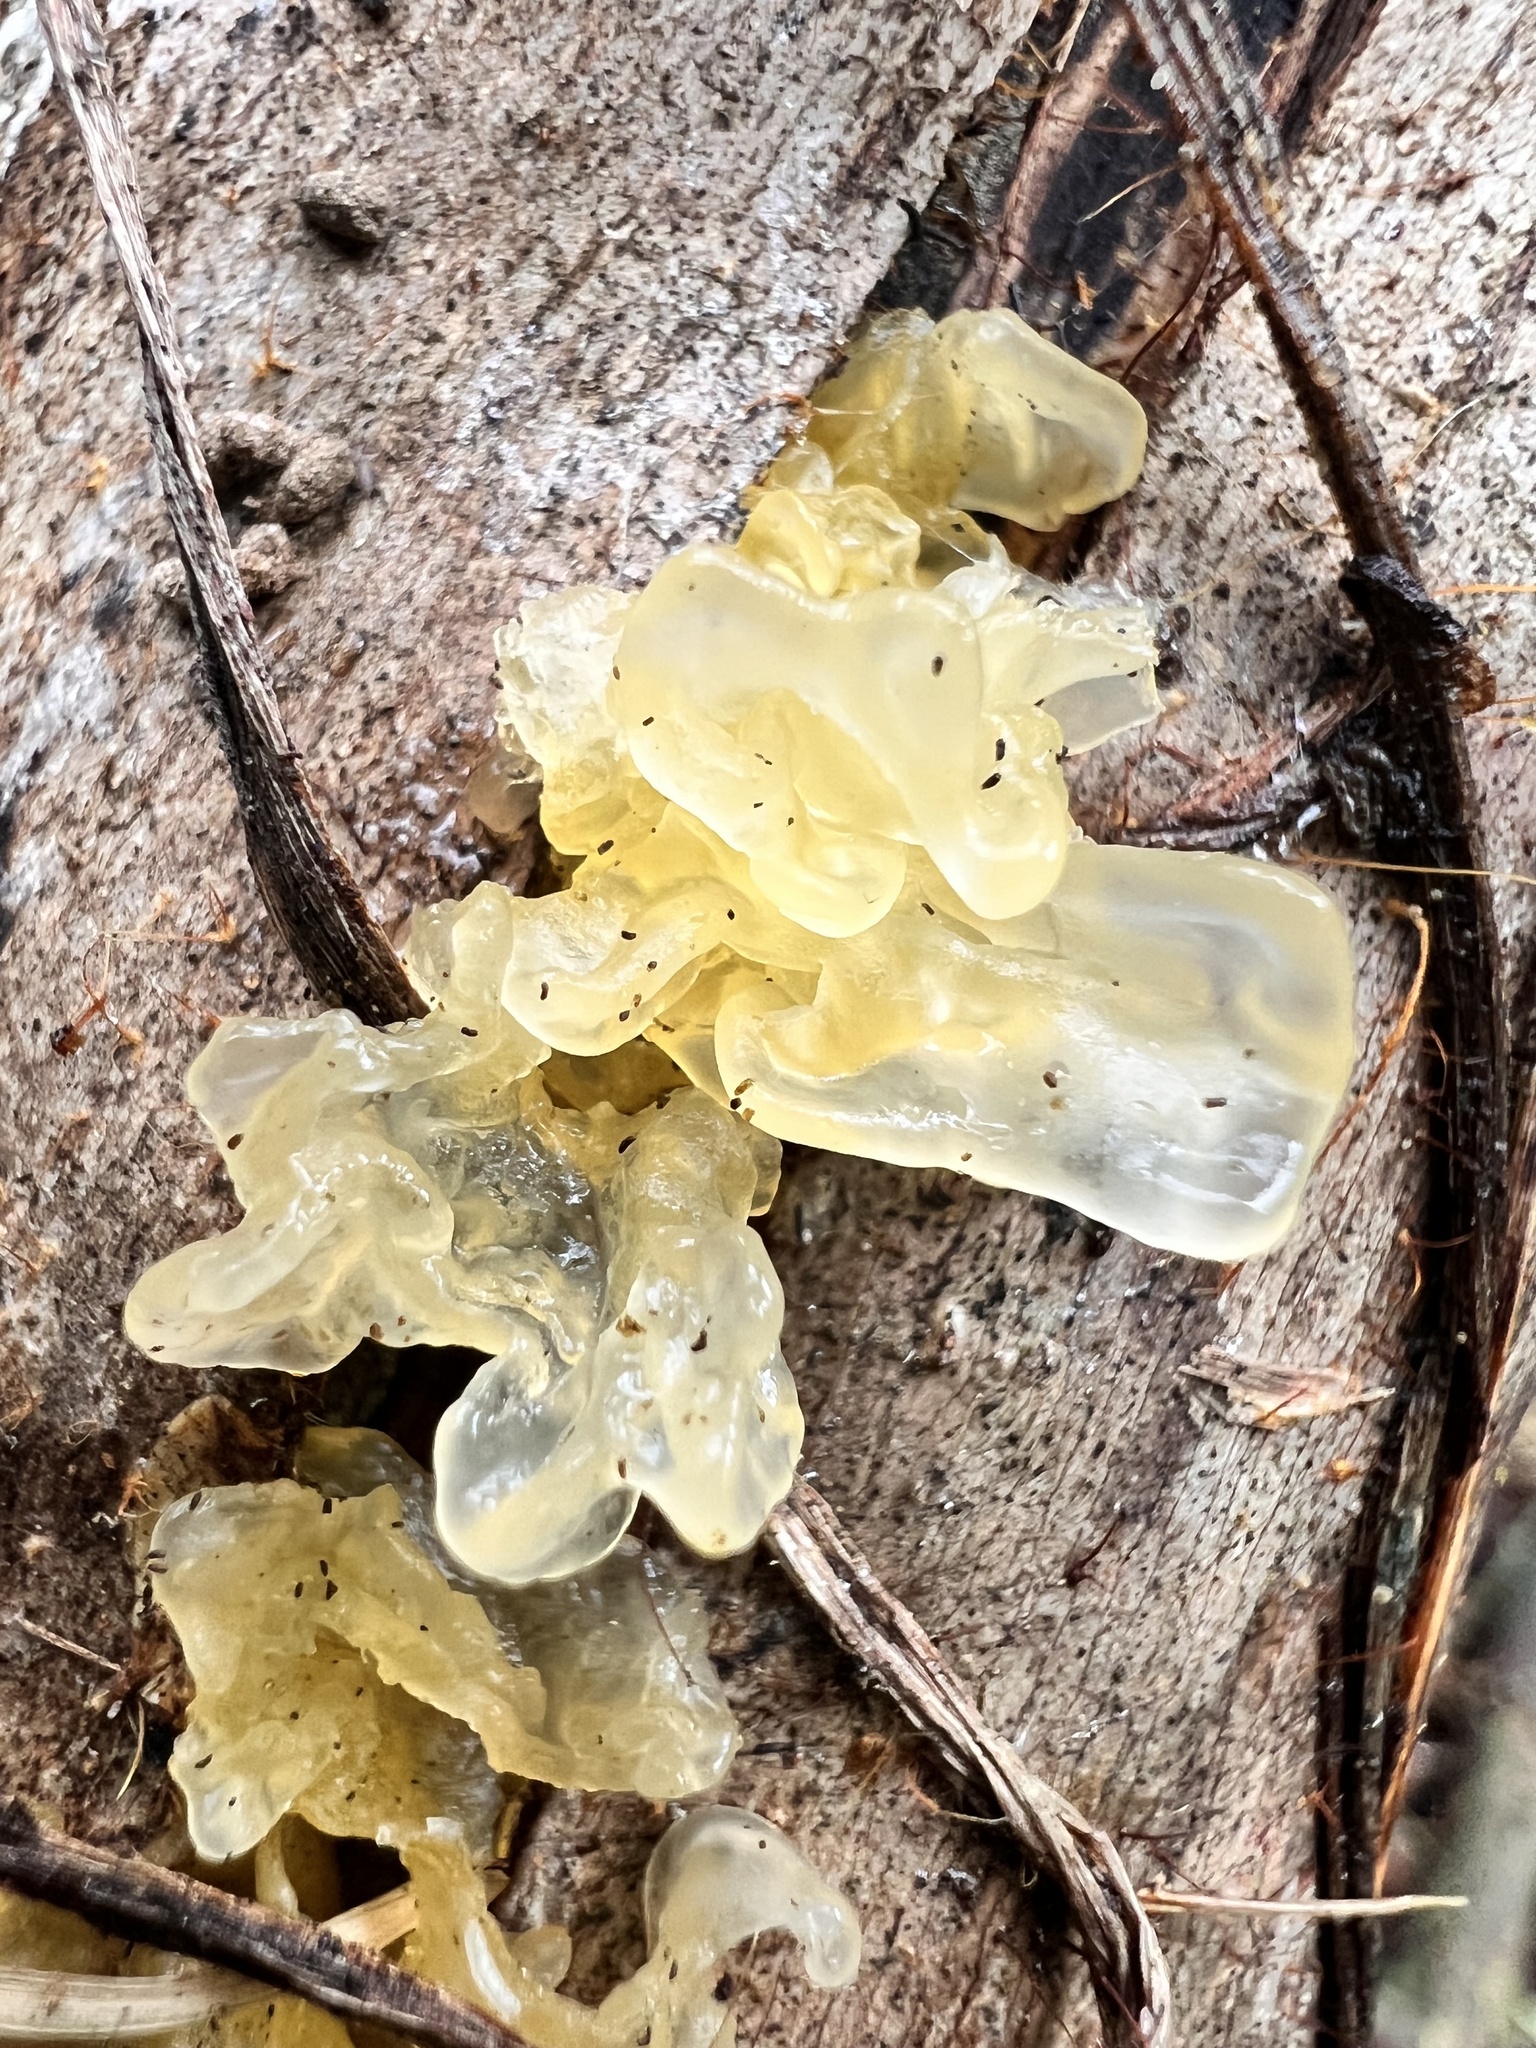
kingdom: Fungi
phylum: Basidiomycota
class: Tremellomycetes
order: Tremellales
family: Tremellaceae
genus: Tremella
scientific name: Tremella fuciformis
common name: Snow fungus
